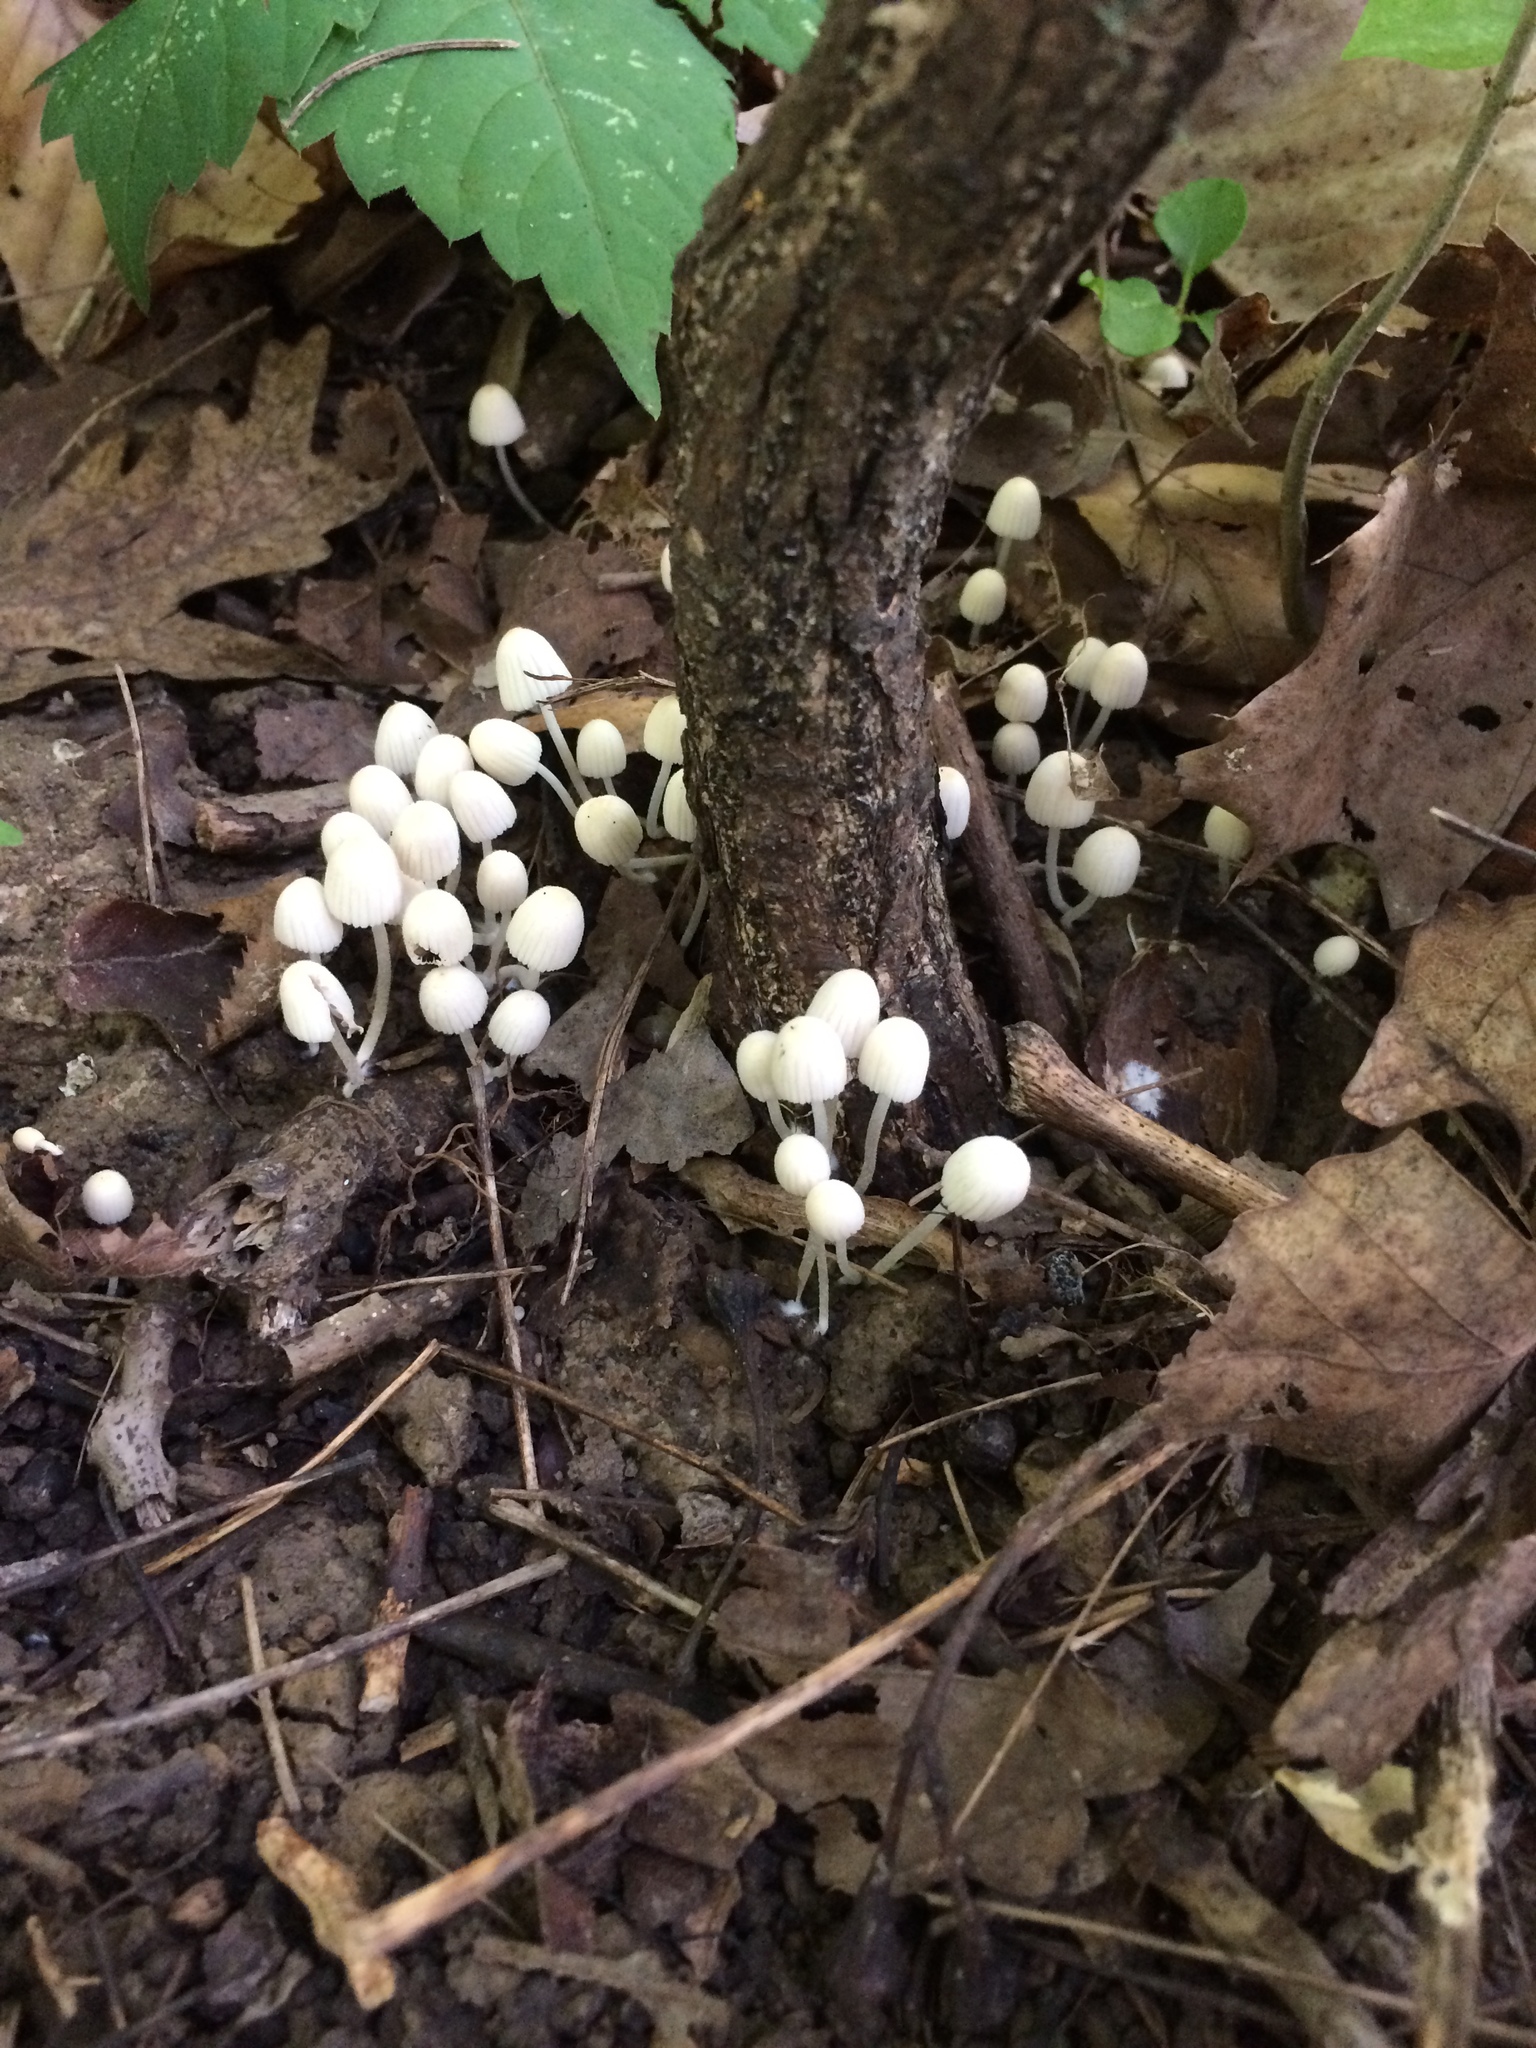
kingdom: Fungi
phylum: Basidiomycota
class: Agaricomycetes
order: Agaricales
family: Psathyrellaceae
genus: Coprinellus
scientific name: Coprinellus disseminatus
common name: Fairies' bonnets
